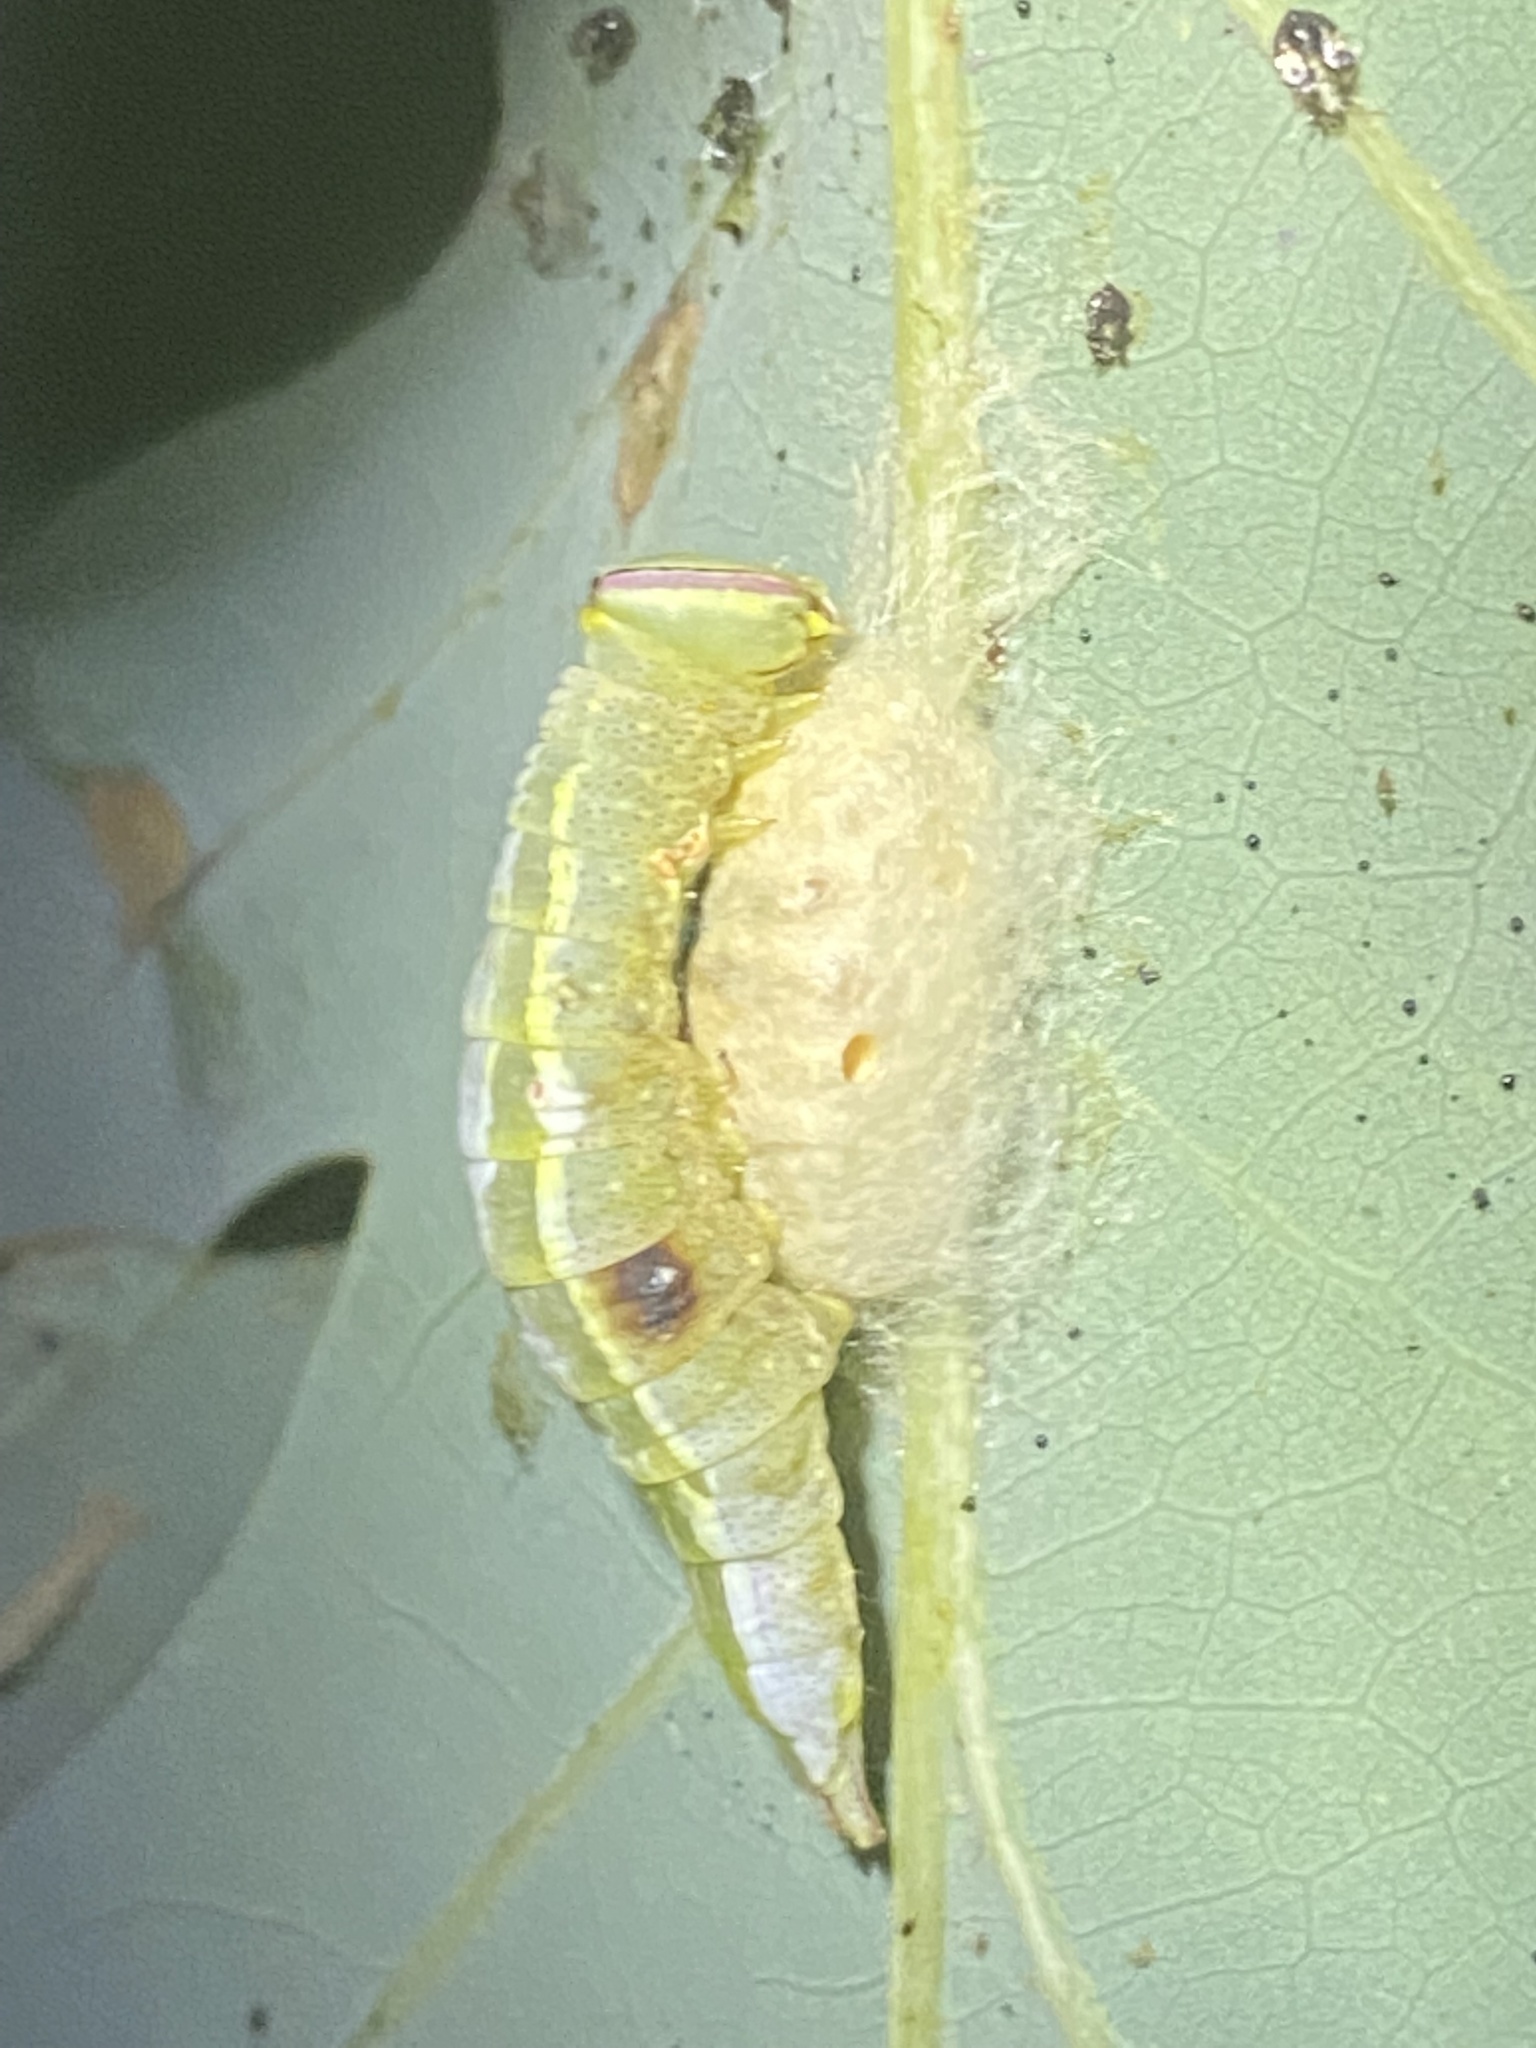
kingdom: Animalia
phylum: Arthropoda
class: Insecta
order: Lepidoptera
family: Notodontidae
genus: Disphragis
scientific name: Disphragis Cecrita guttivitta
